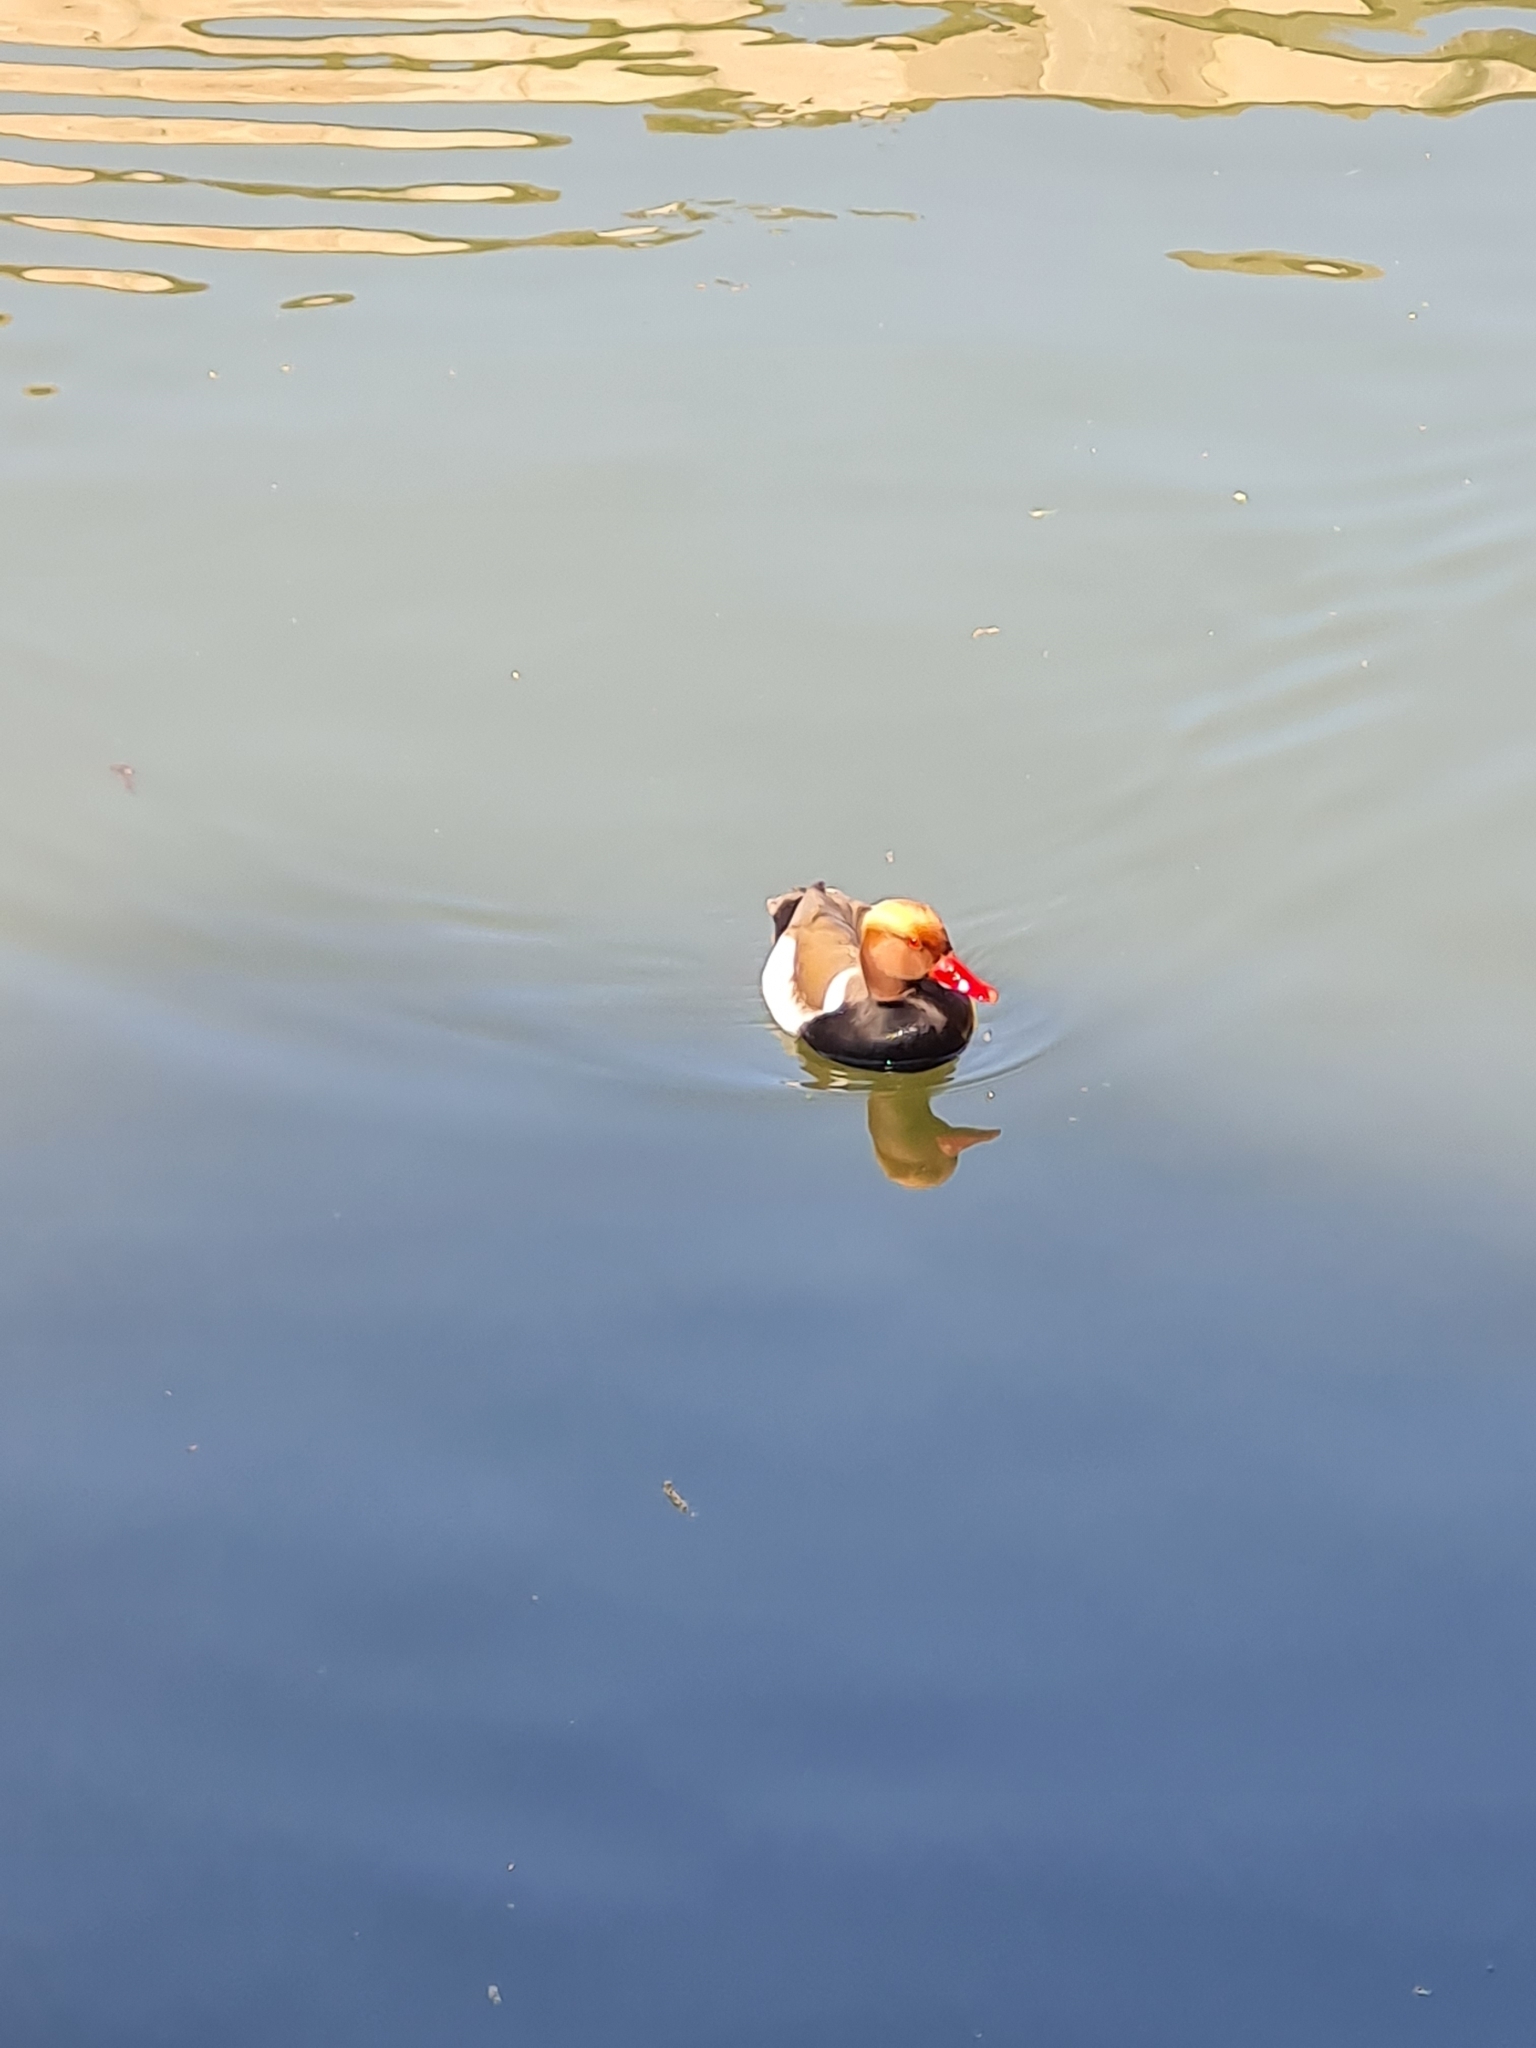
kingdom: Animalia
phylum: Chordata
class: Aves
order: Anseriformes
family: Anatidae
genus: Netta
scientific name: Netta rufina
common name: Red-crested pochard
